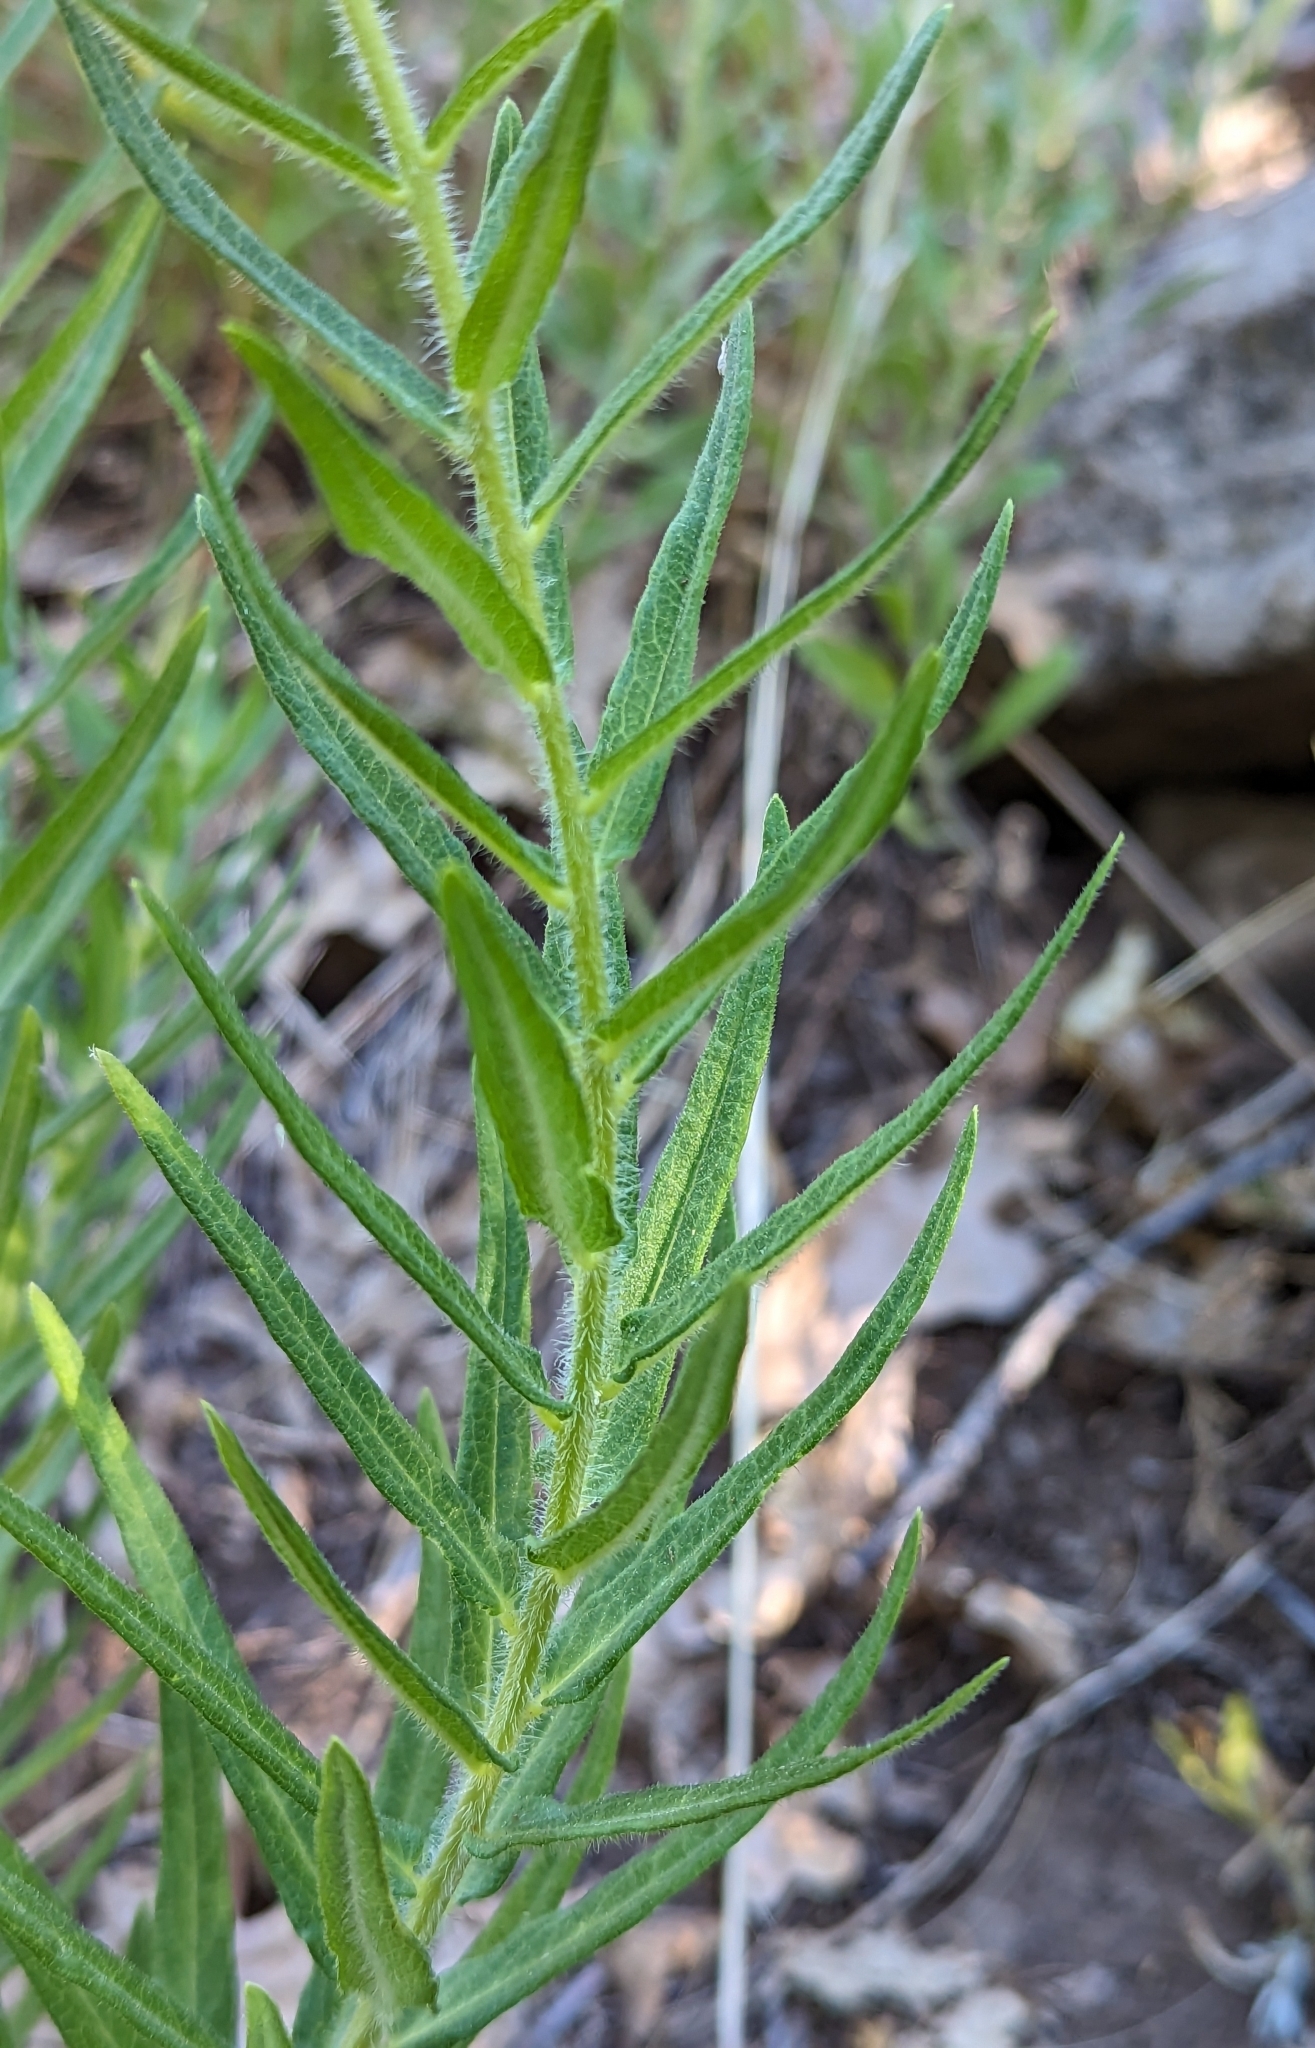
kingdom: Plantae
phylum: Tracheophyta
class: Magnoliopsida
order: Gentianales
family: Apocynaceae
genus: Asclepias
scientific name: Asclepias tuberosa
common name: Butterfly milkweed
